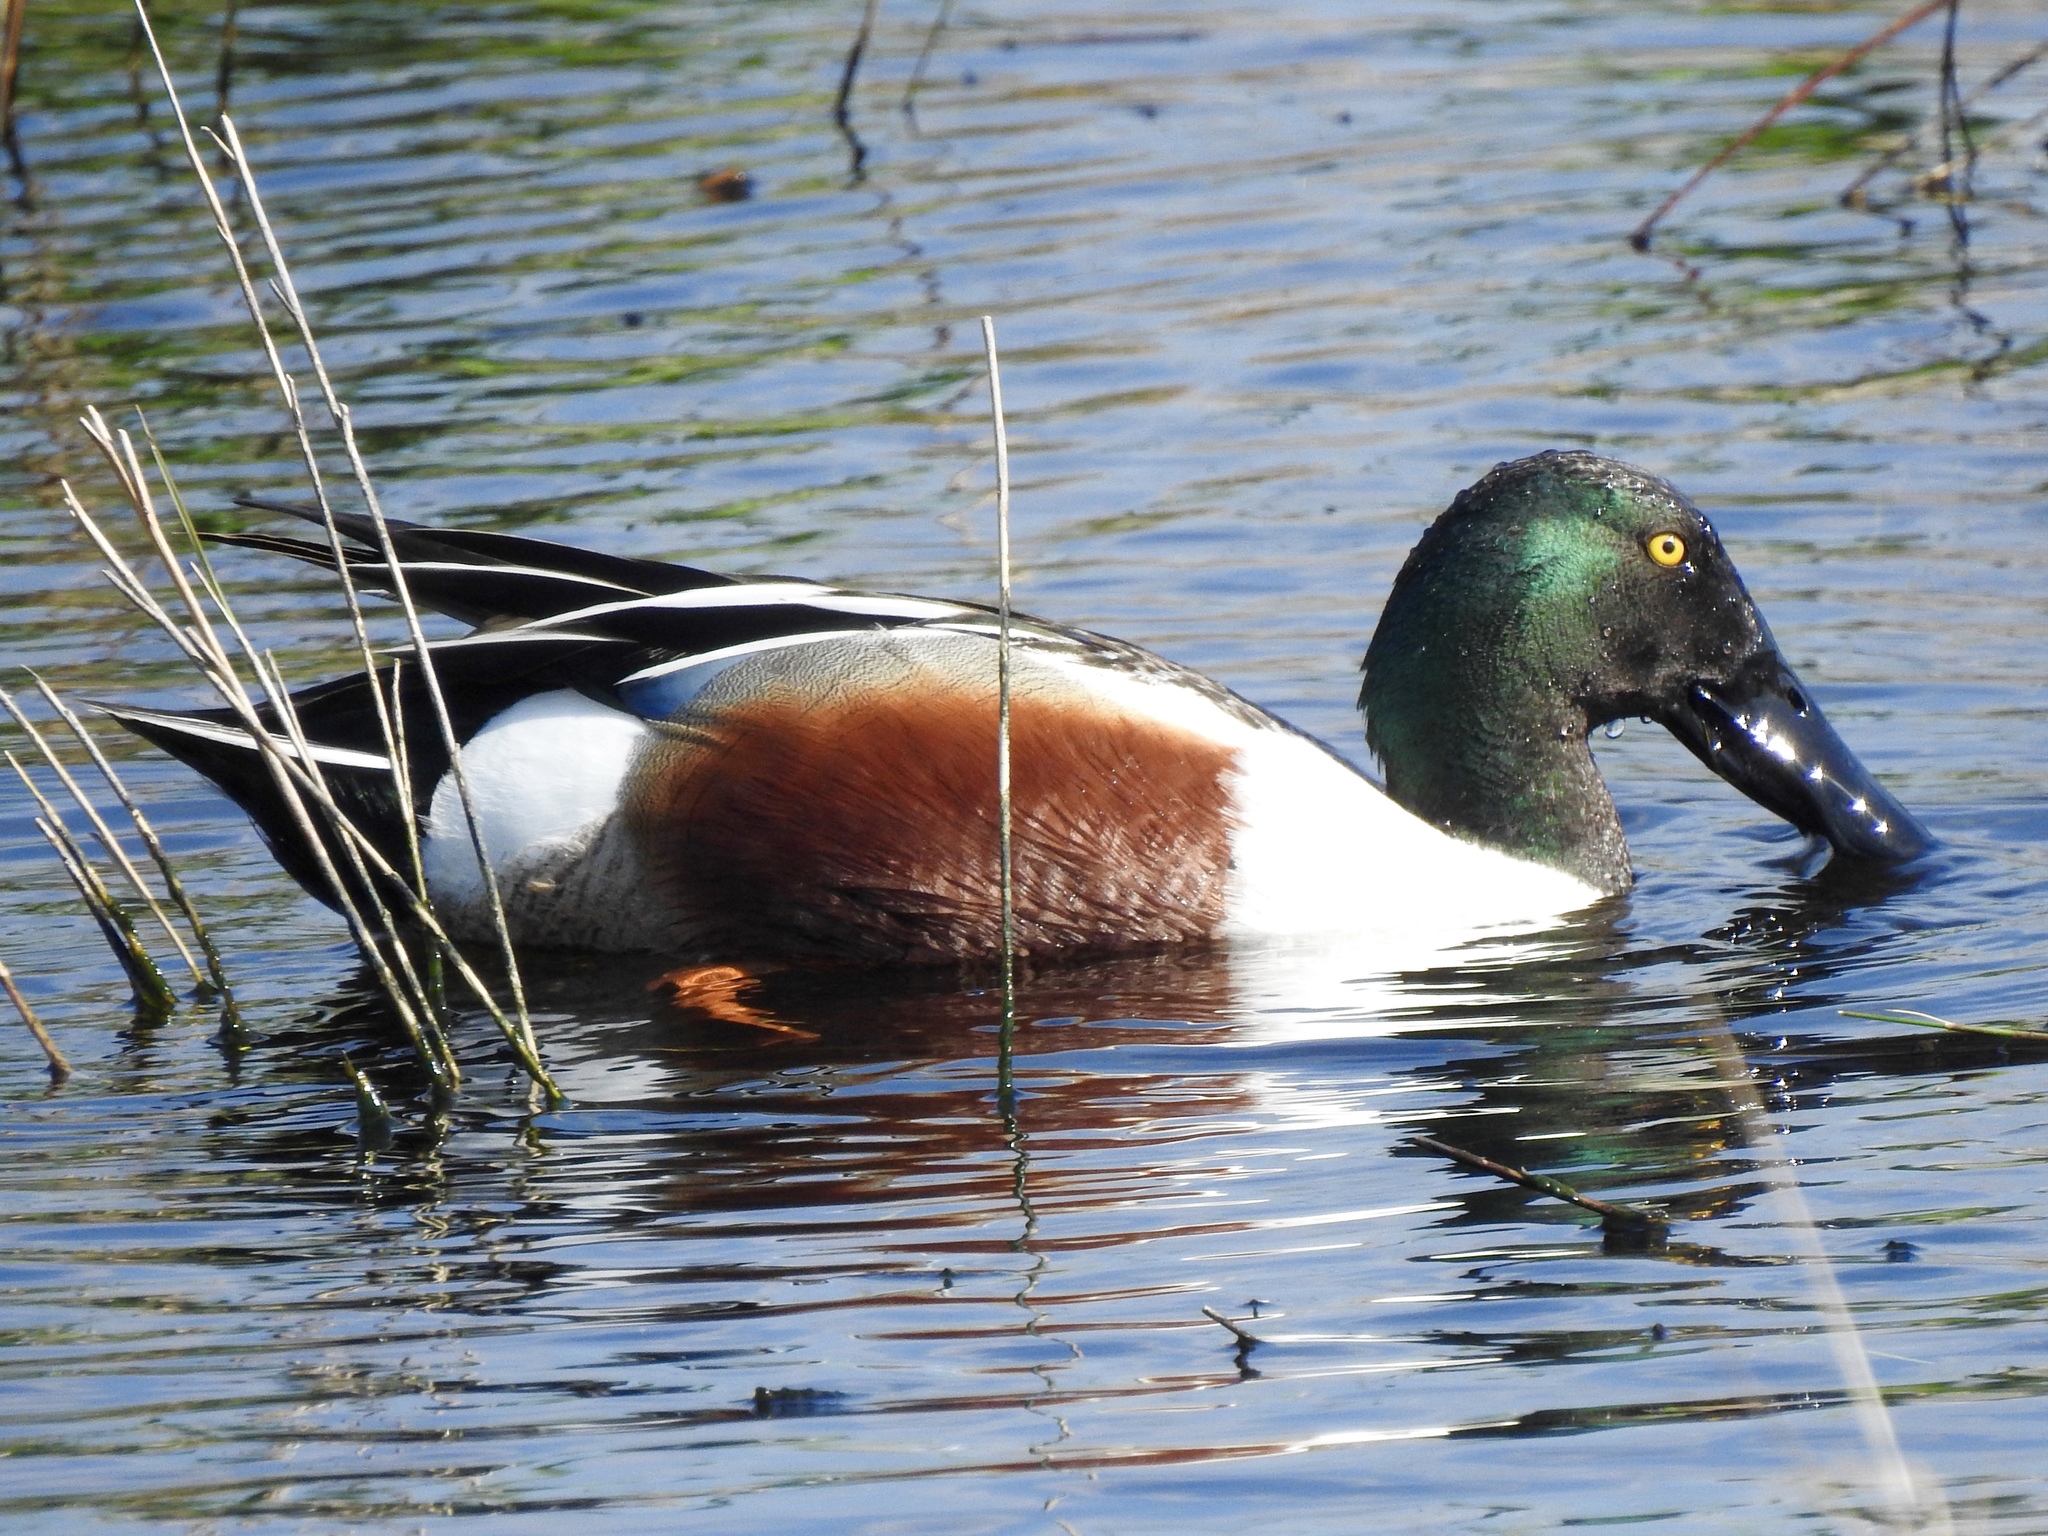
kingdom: Animalia
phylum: Chordata
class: Aves
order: Anseriformes
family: Anatidae
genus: Spatula
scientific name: Spatula clypeata
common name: Northern shoveler
